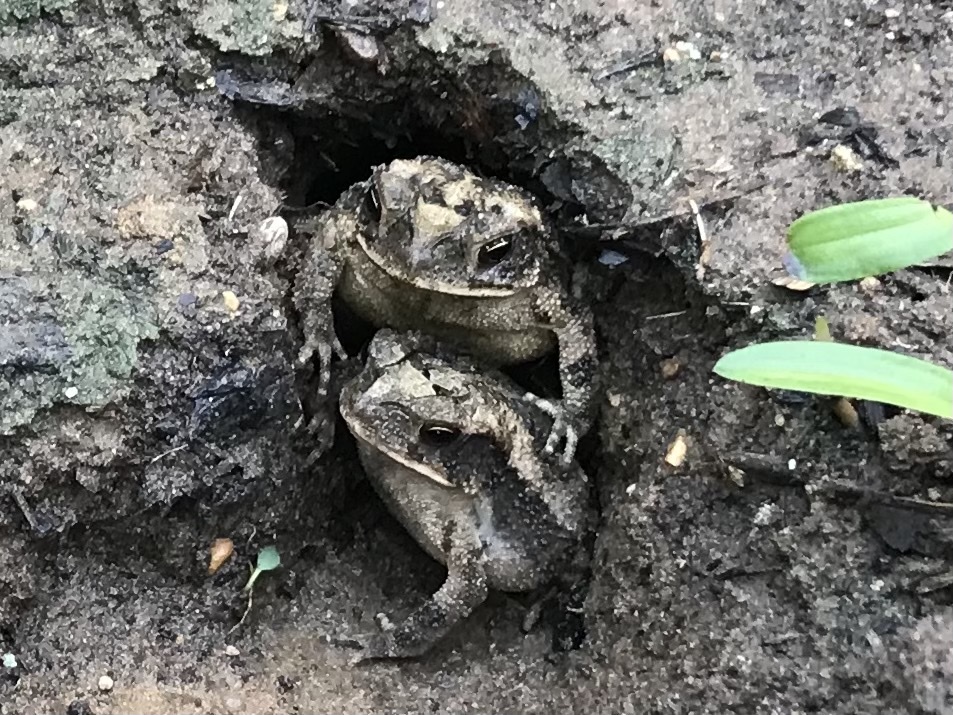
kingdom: Animalia
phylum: Chordata
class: Amphibia
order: Anura
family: Bufonidae
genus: Incilius
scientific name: Incilius nebulifer
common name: Gulf coast toad
